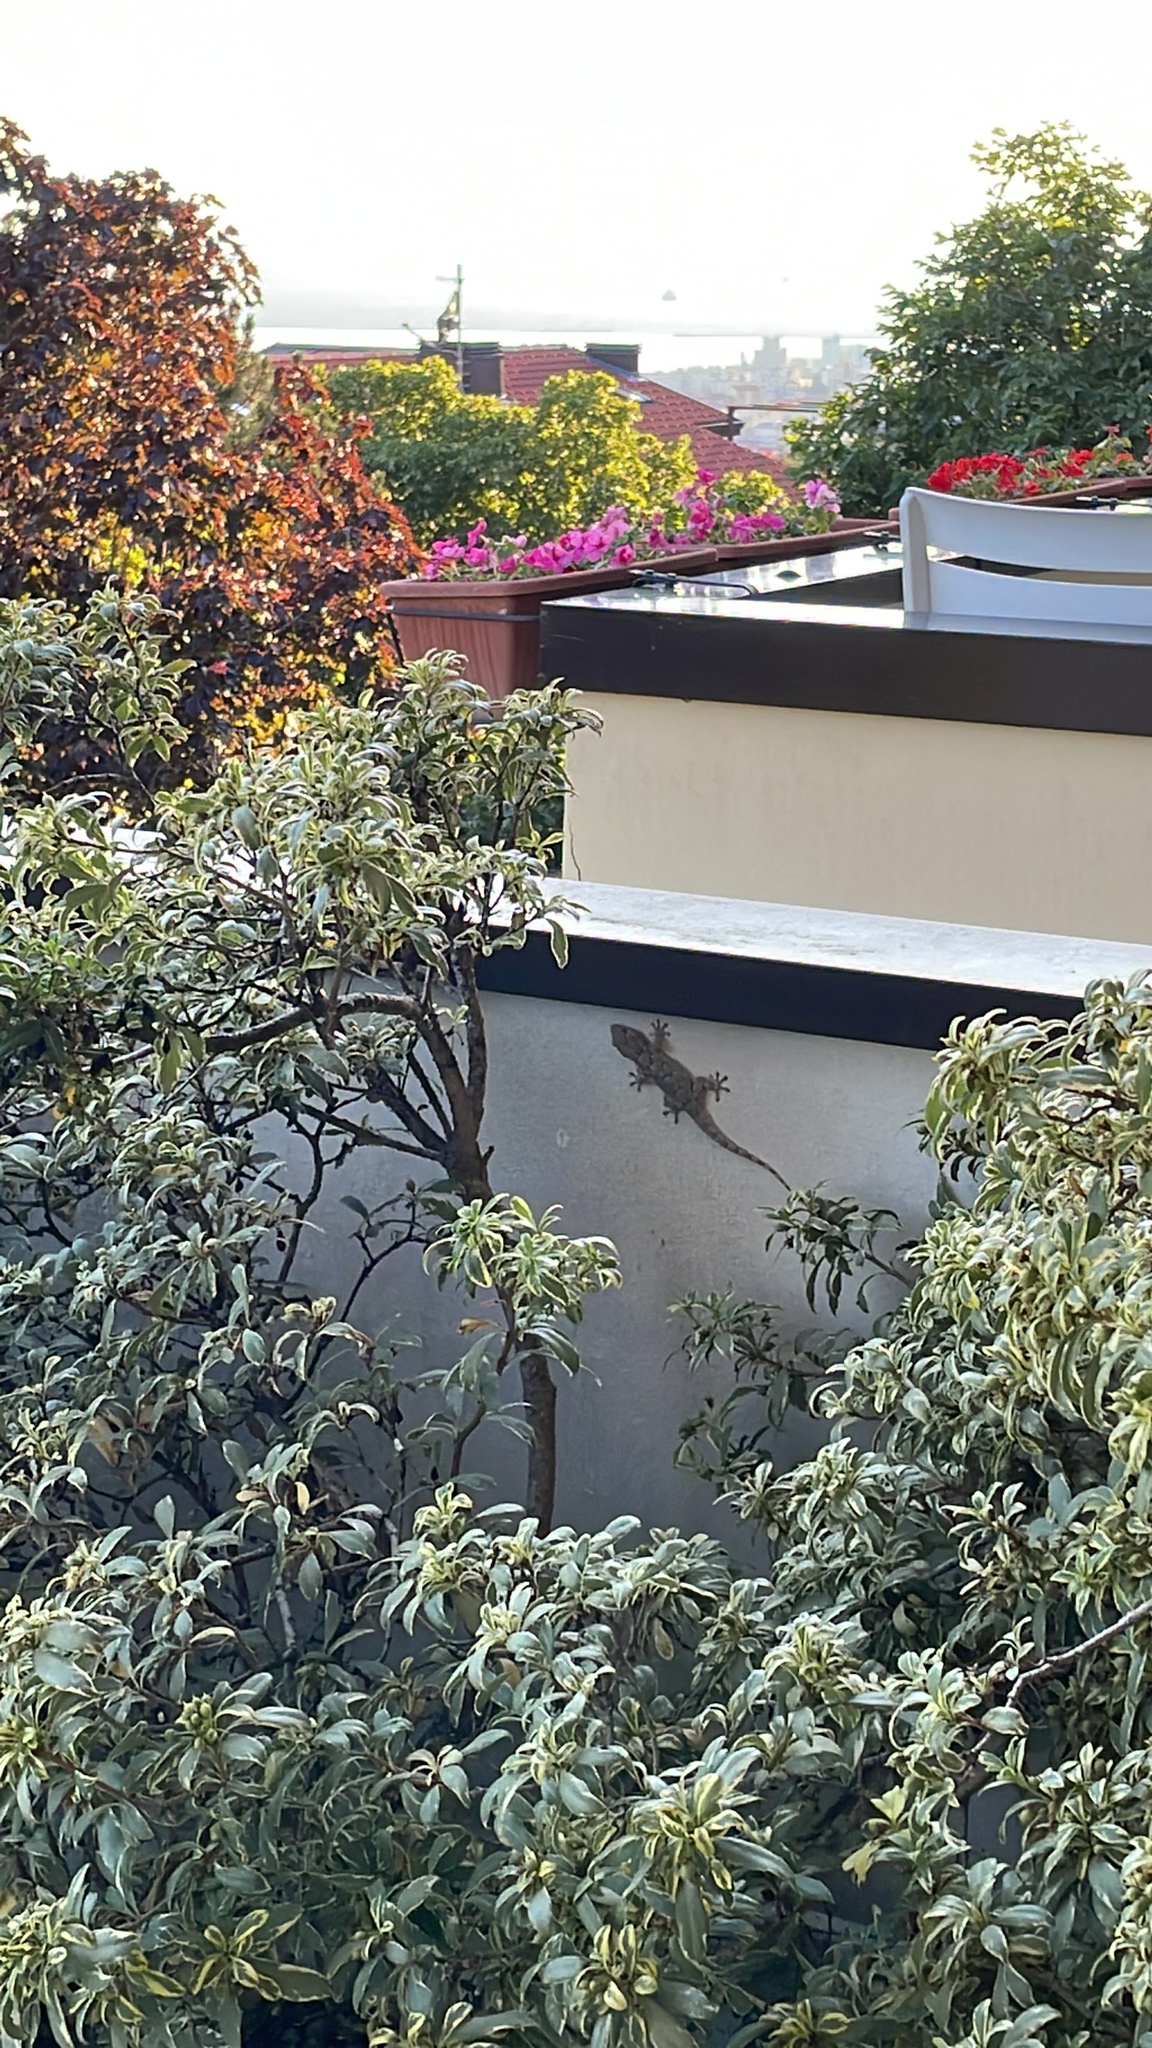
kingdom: Animalia
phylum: Chordata
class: Squamata
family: Phyllodactylidae
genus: Tarentola
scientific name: Tarentola mauritanica
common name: Moorish gecko
